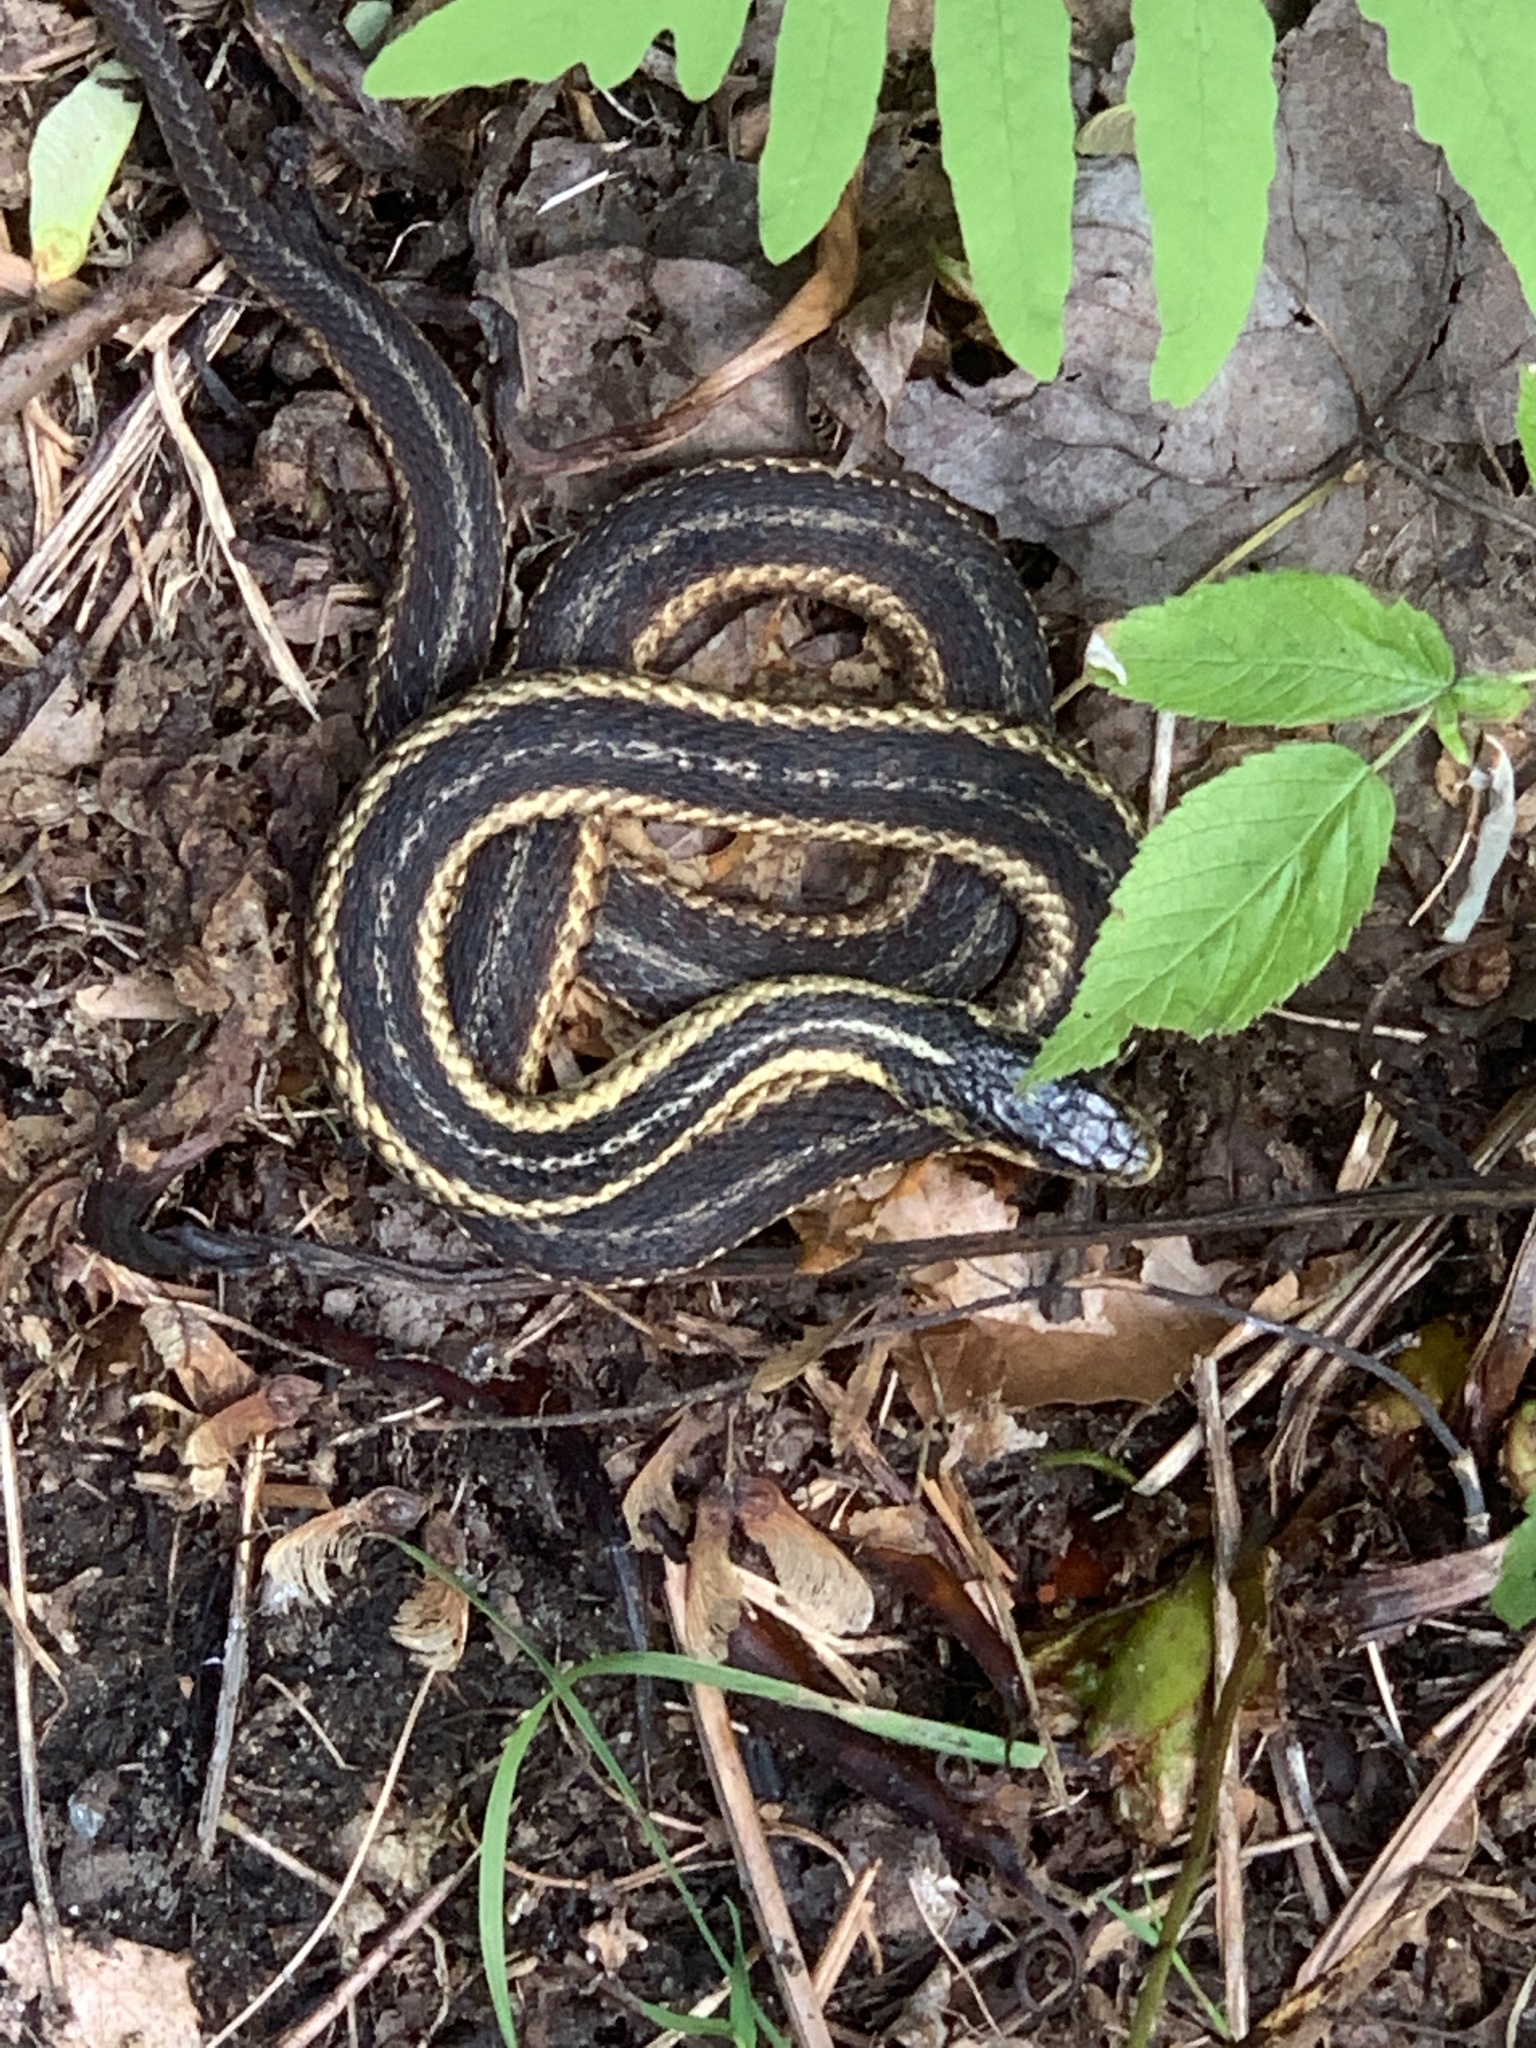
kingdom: Animalia
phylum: Chordata
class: Squamata
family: Colubridae
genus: Thamnophis
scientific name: Thamnophis sirtalis
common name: Common garter snake
